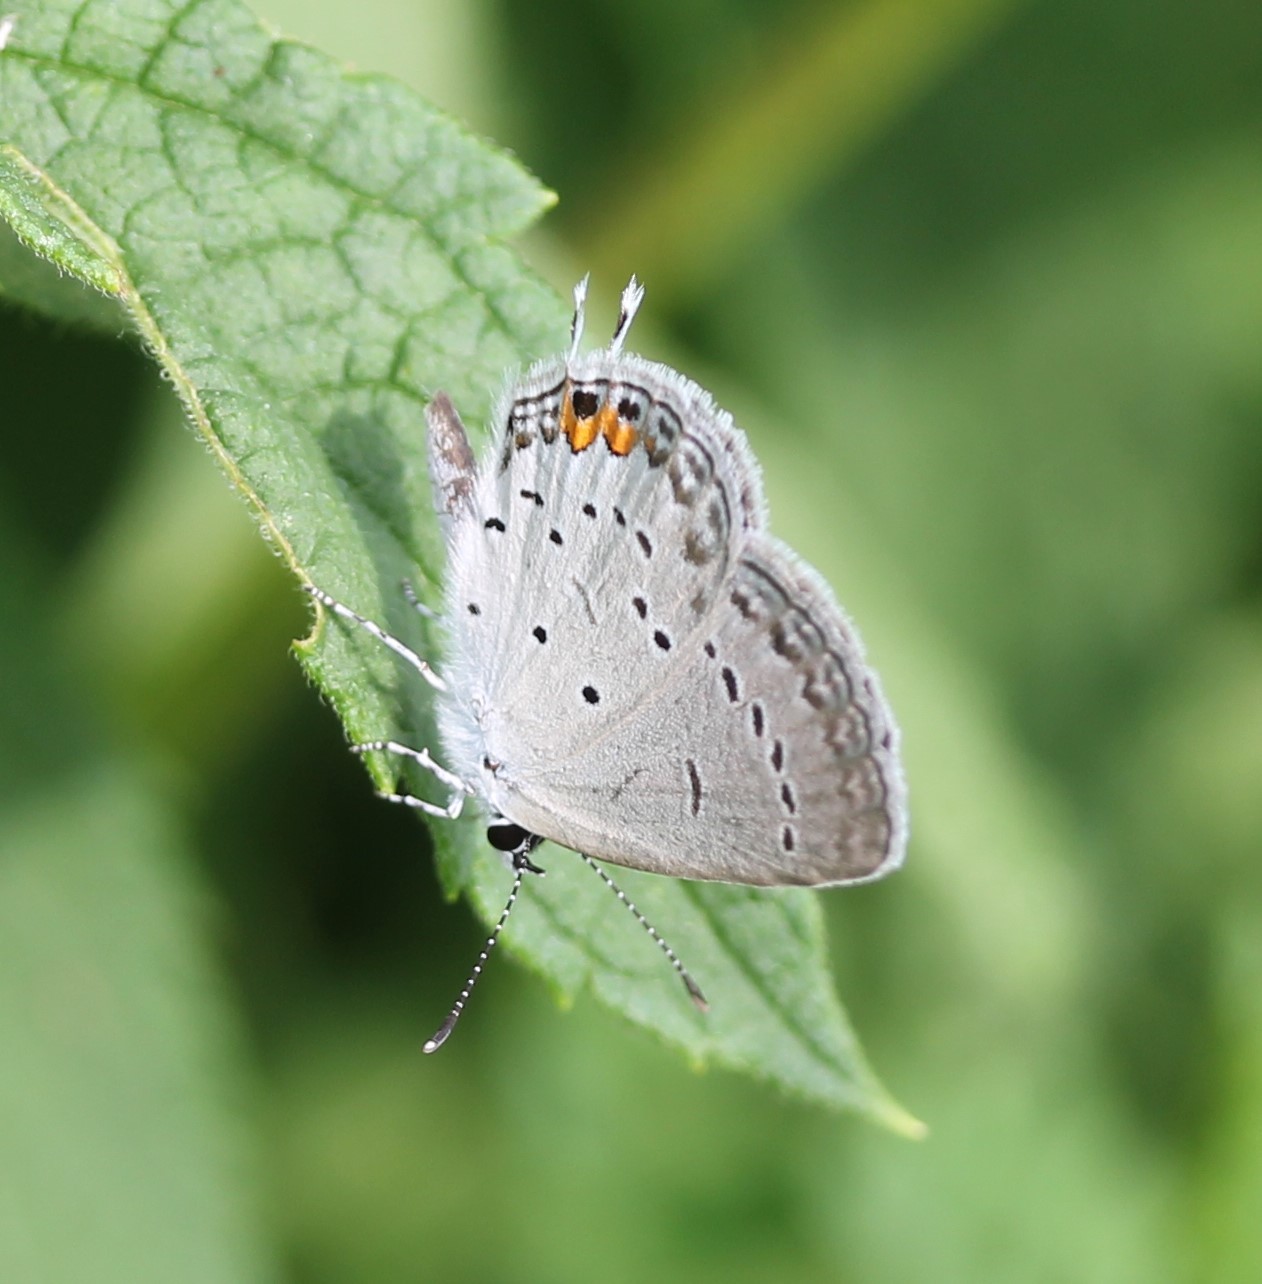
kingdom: Animalia
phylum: Arthropoda
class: Insecta
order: Lepidoptera
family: Lycaenidae
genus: Elkalyce
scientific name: Elkalyce comyntas
